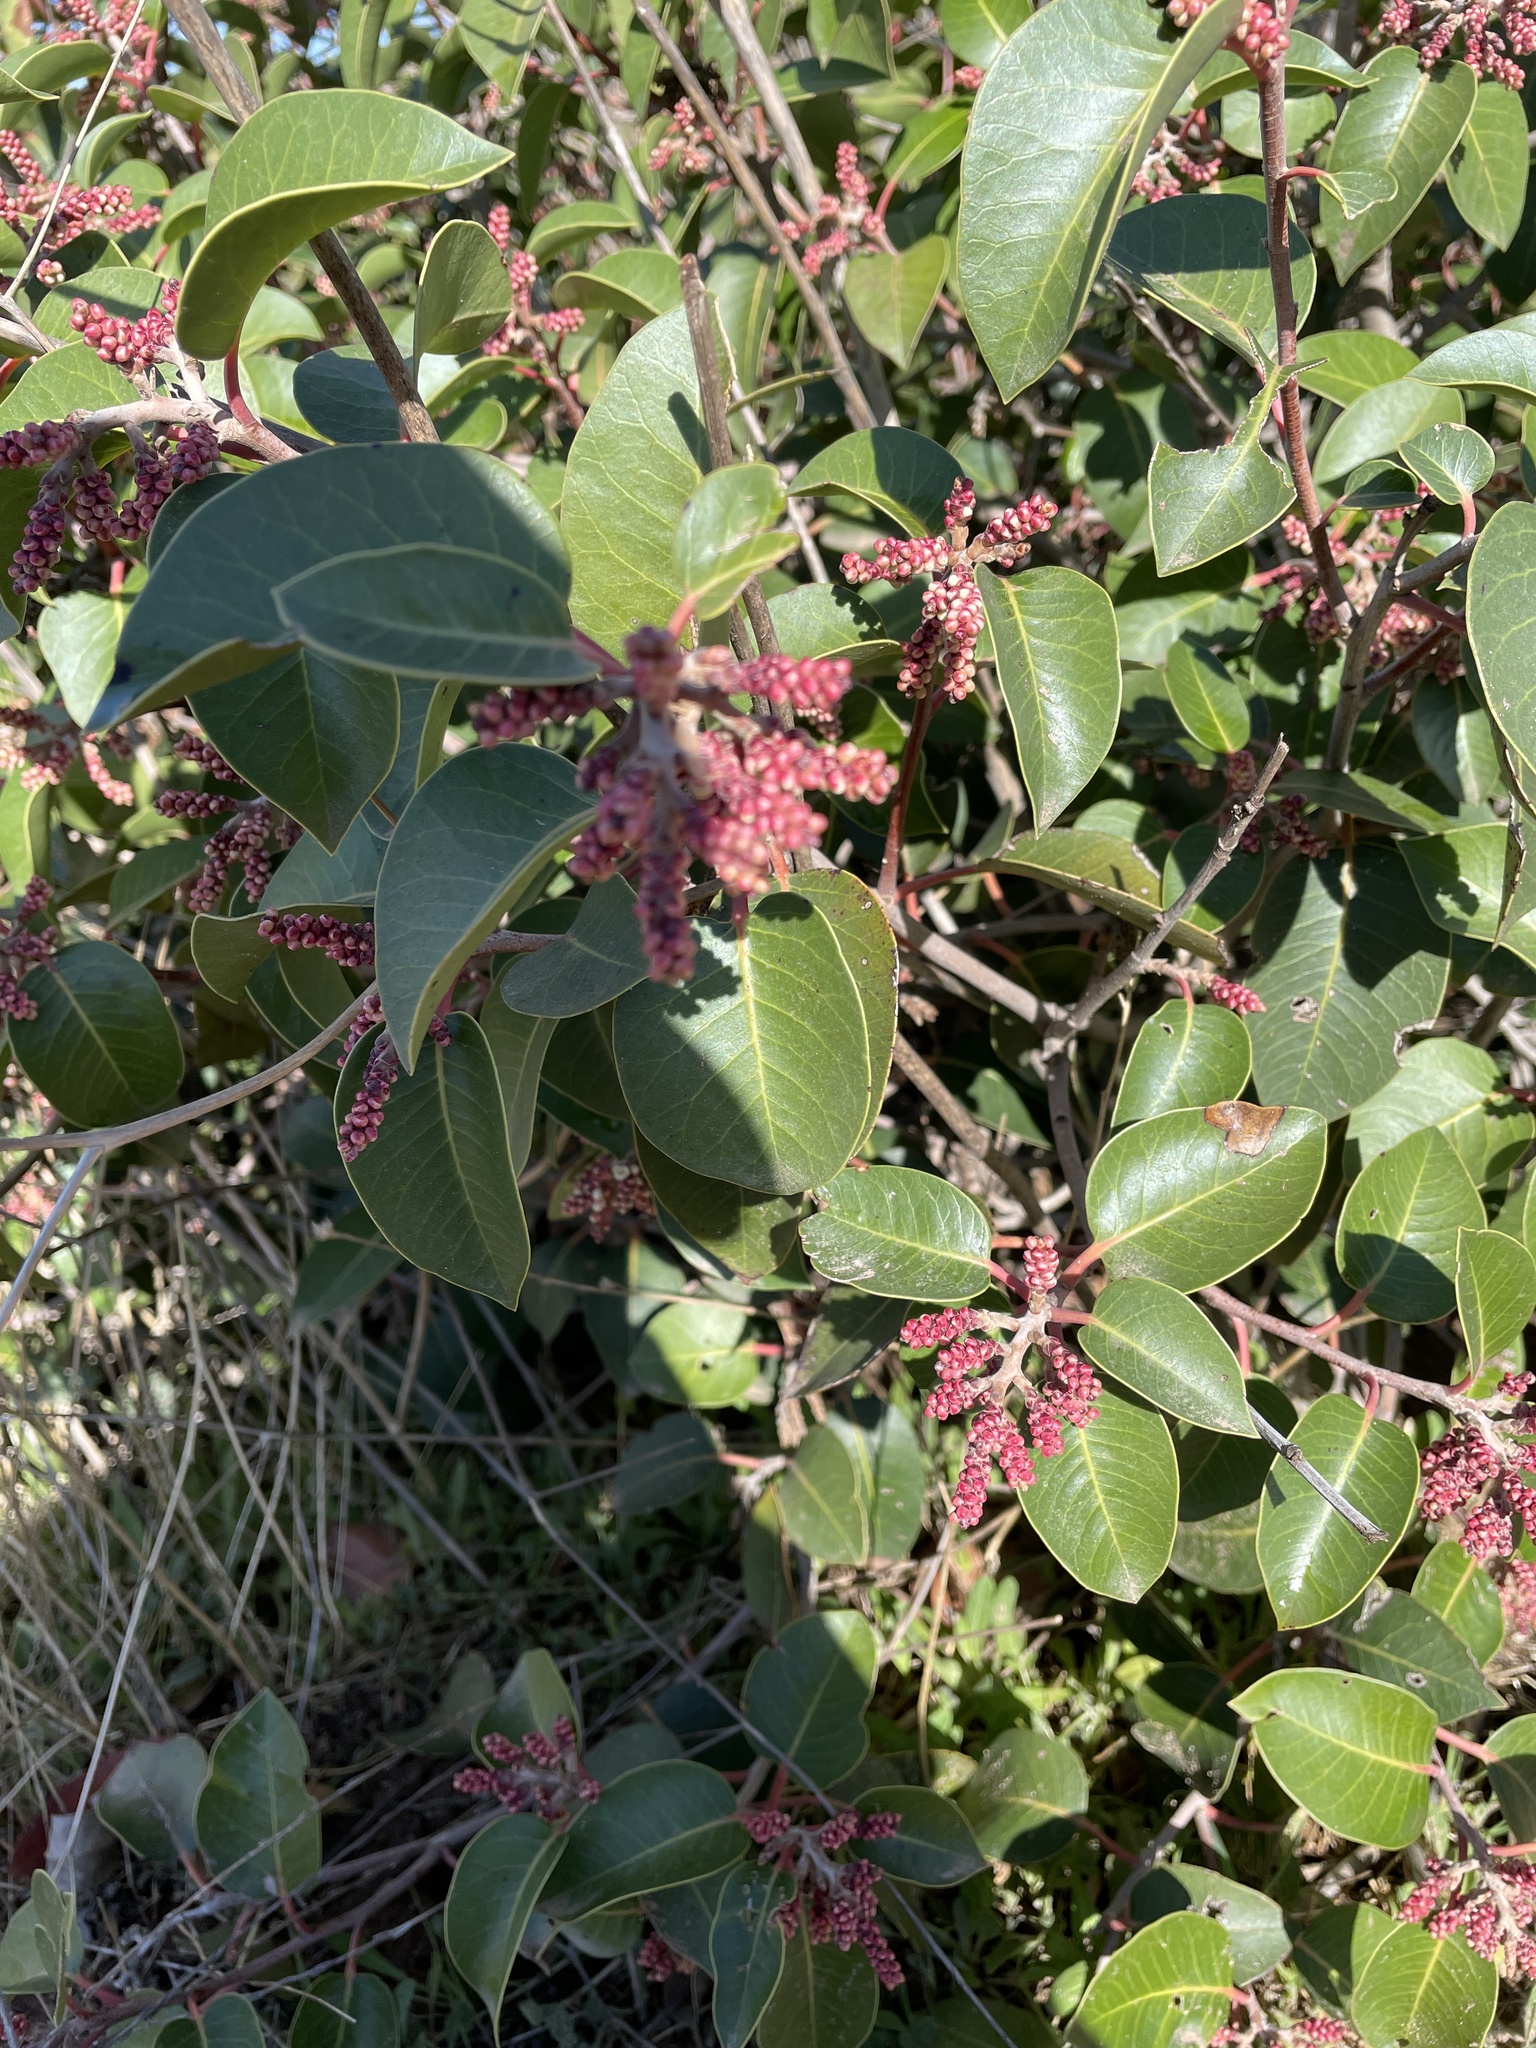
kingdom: Plantae
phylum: Tracheophyta
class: Magnoliopsida
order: Sapindales
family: Anacardiaceae
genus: Rhus
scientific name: Rhus ovata
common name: Sugar sumac
